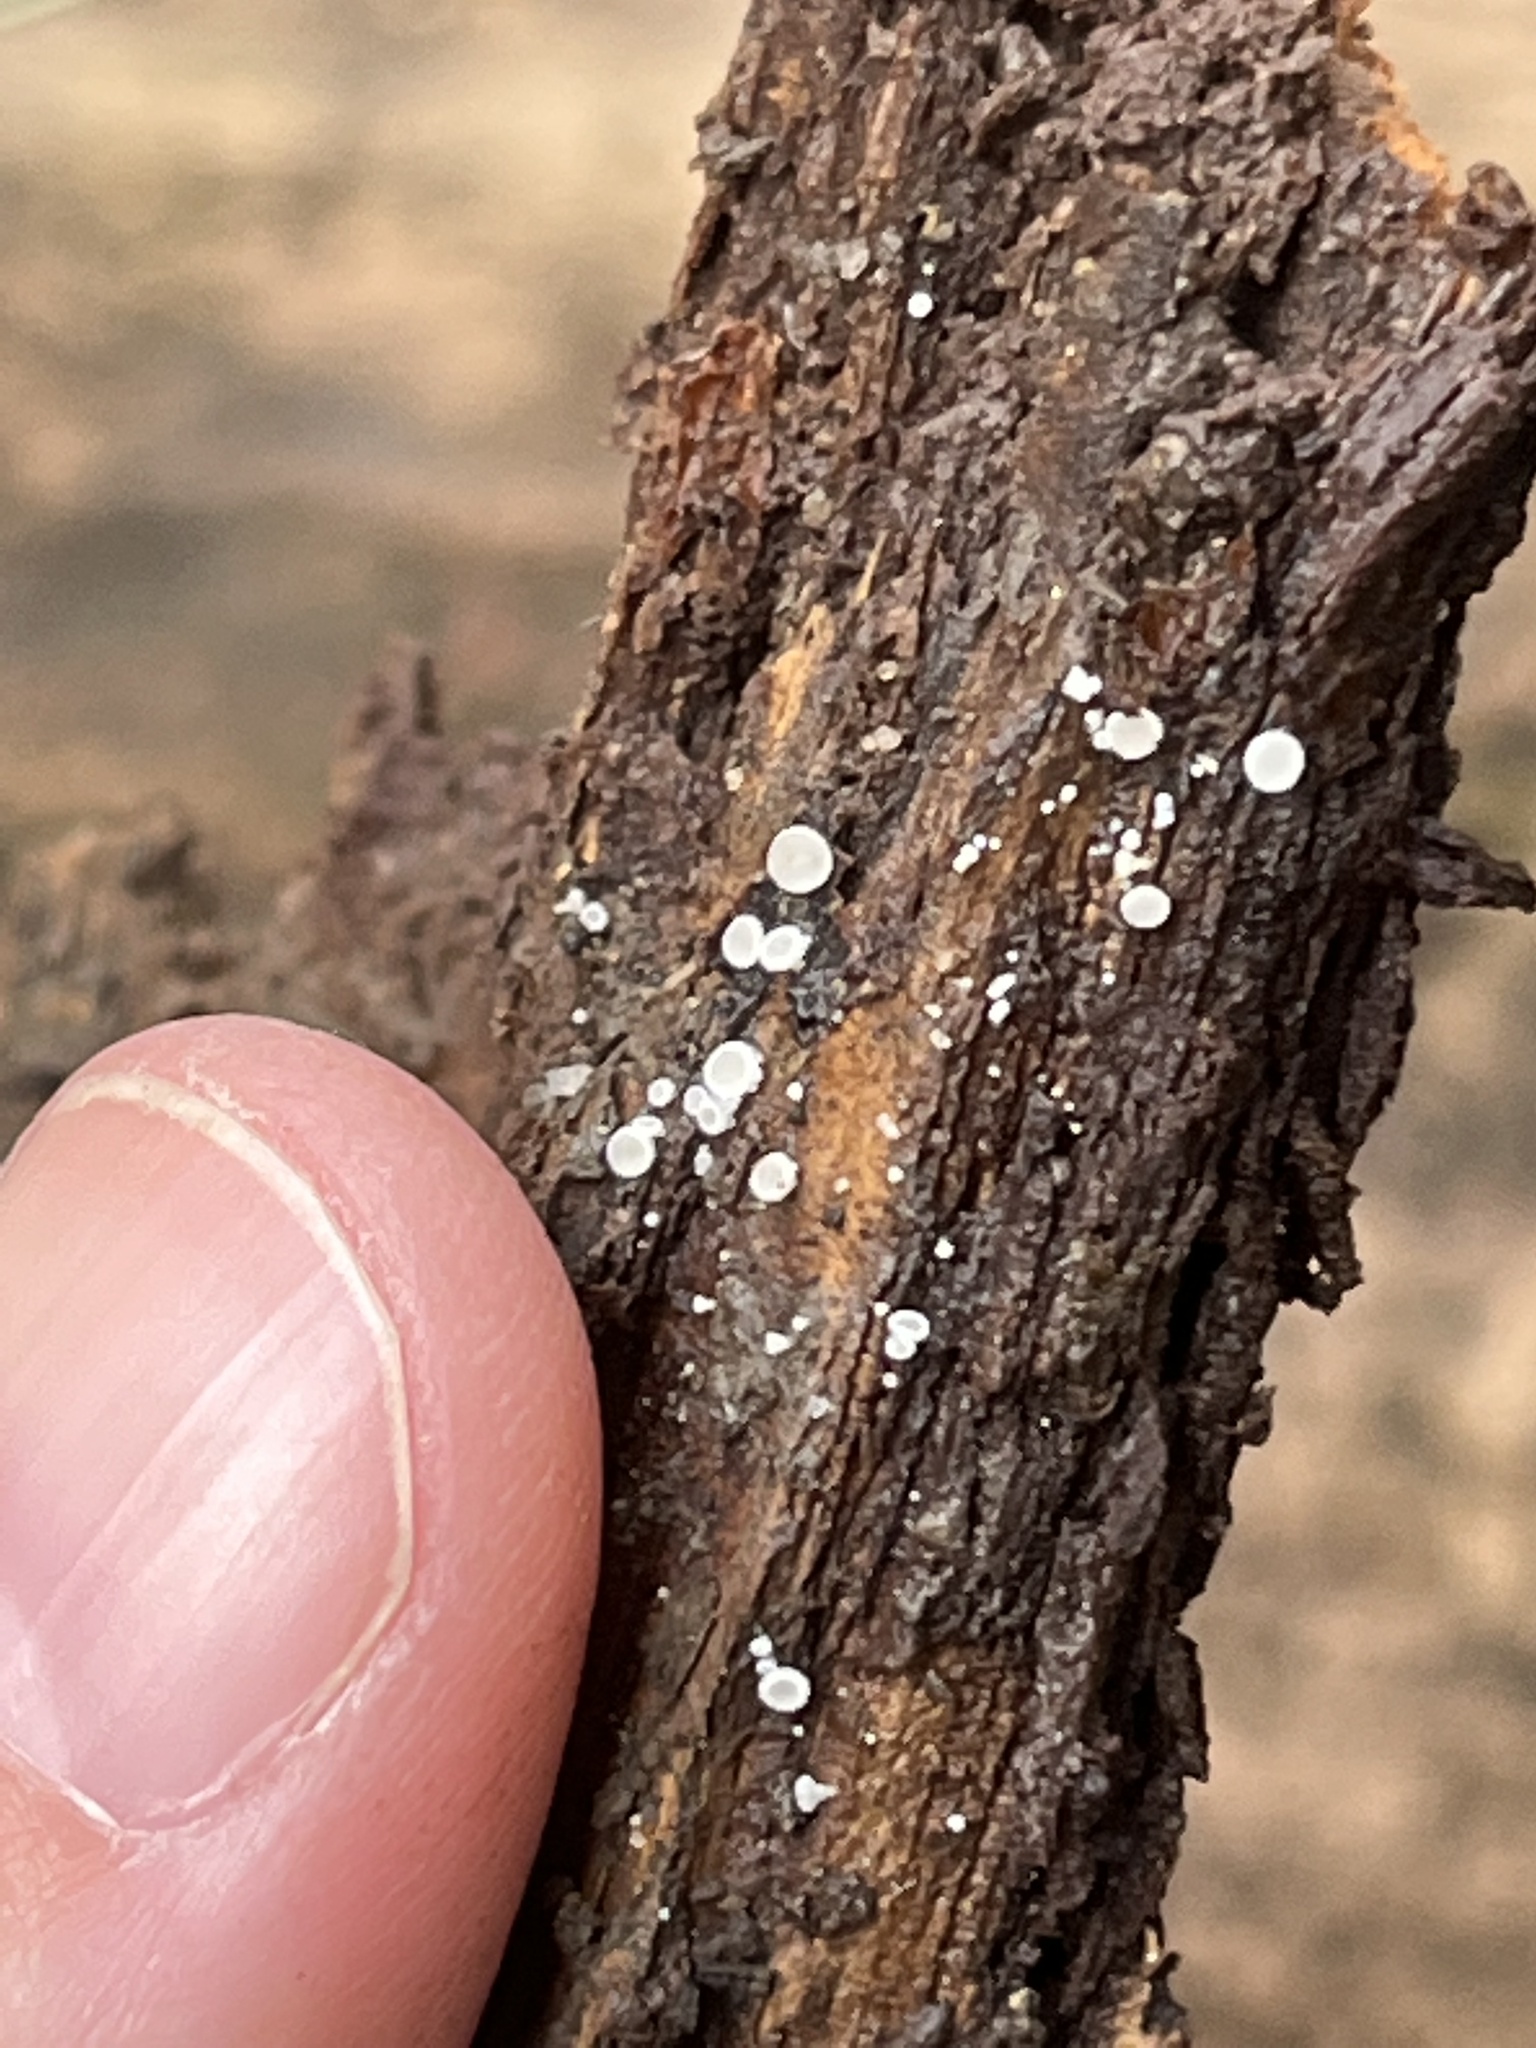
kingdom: Fungi
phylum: Ascomycota
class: Leotiomycetes
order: Helotiales
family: Mollisiaceae
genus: Mollisia
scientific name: Mollisia cinerea
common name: Common grey disco
